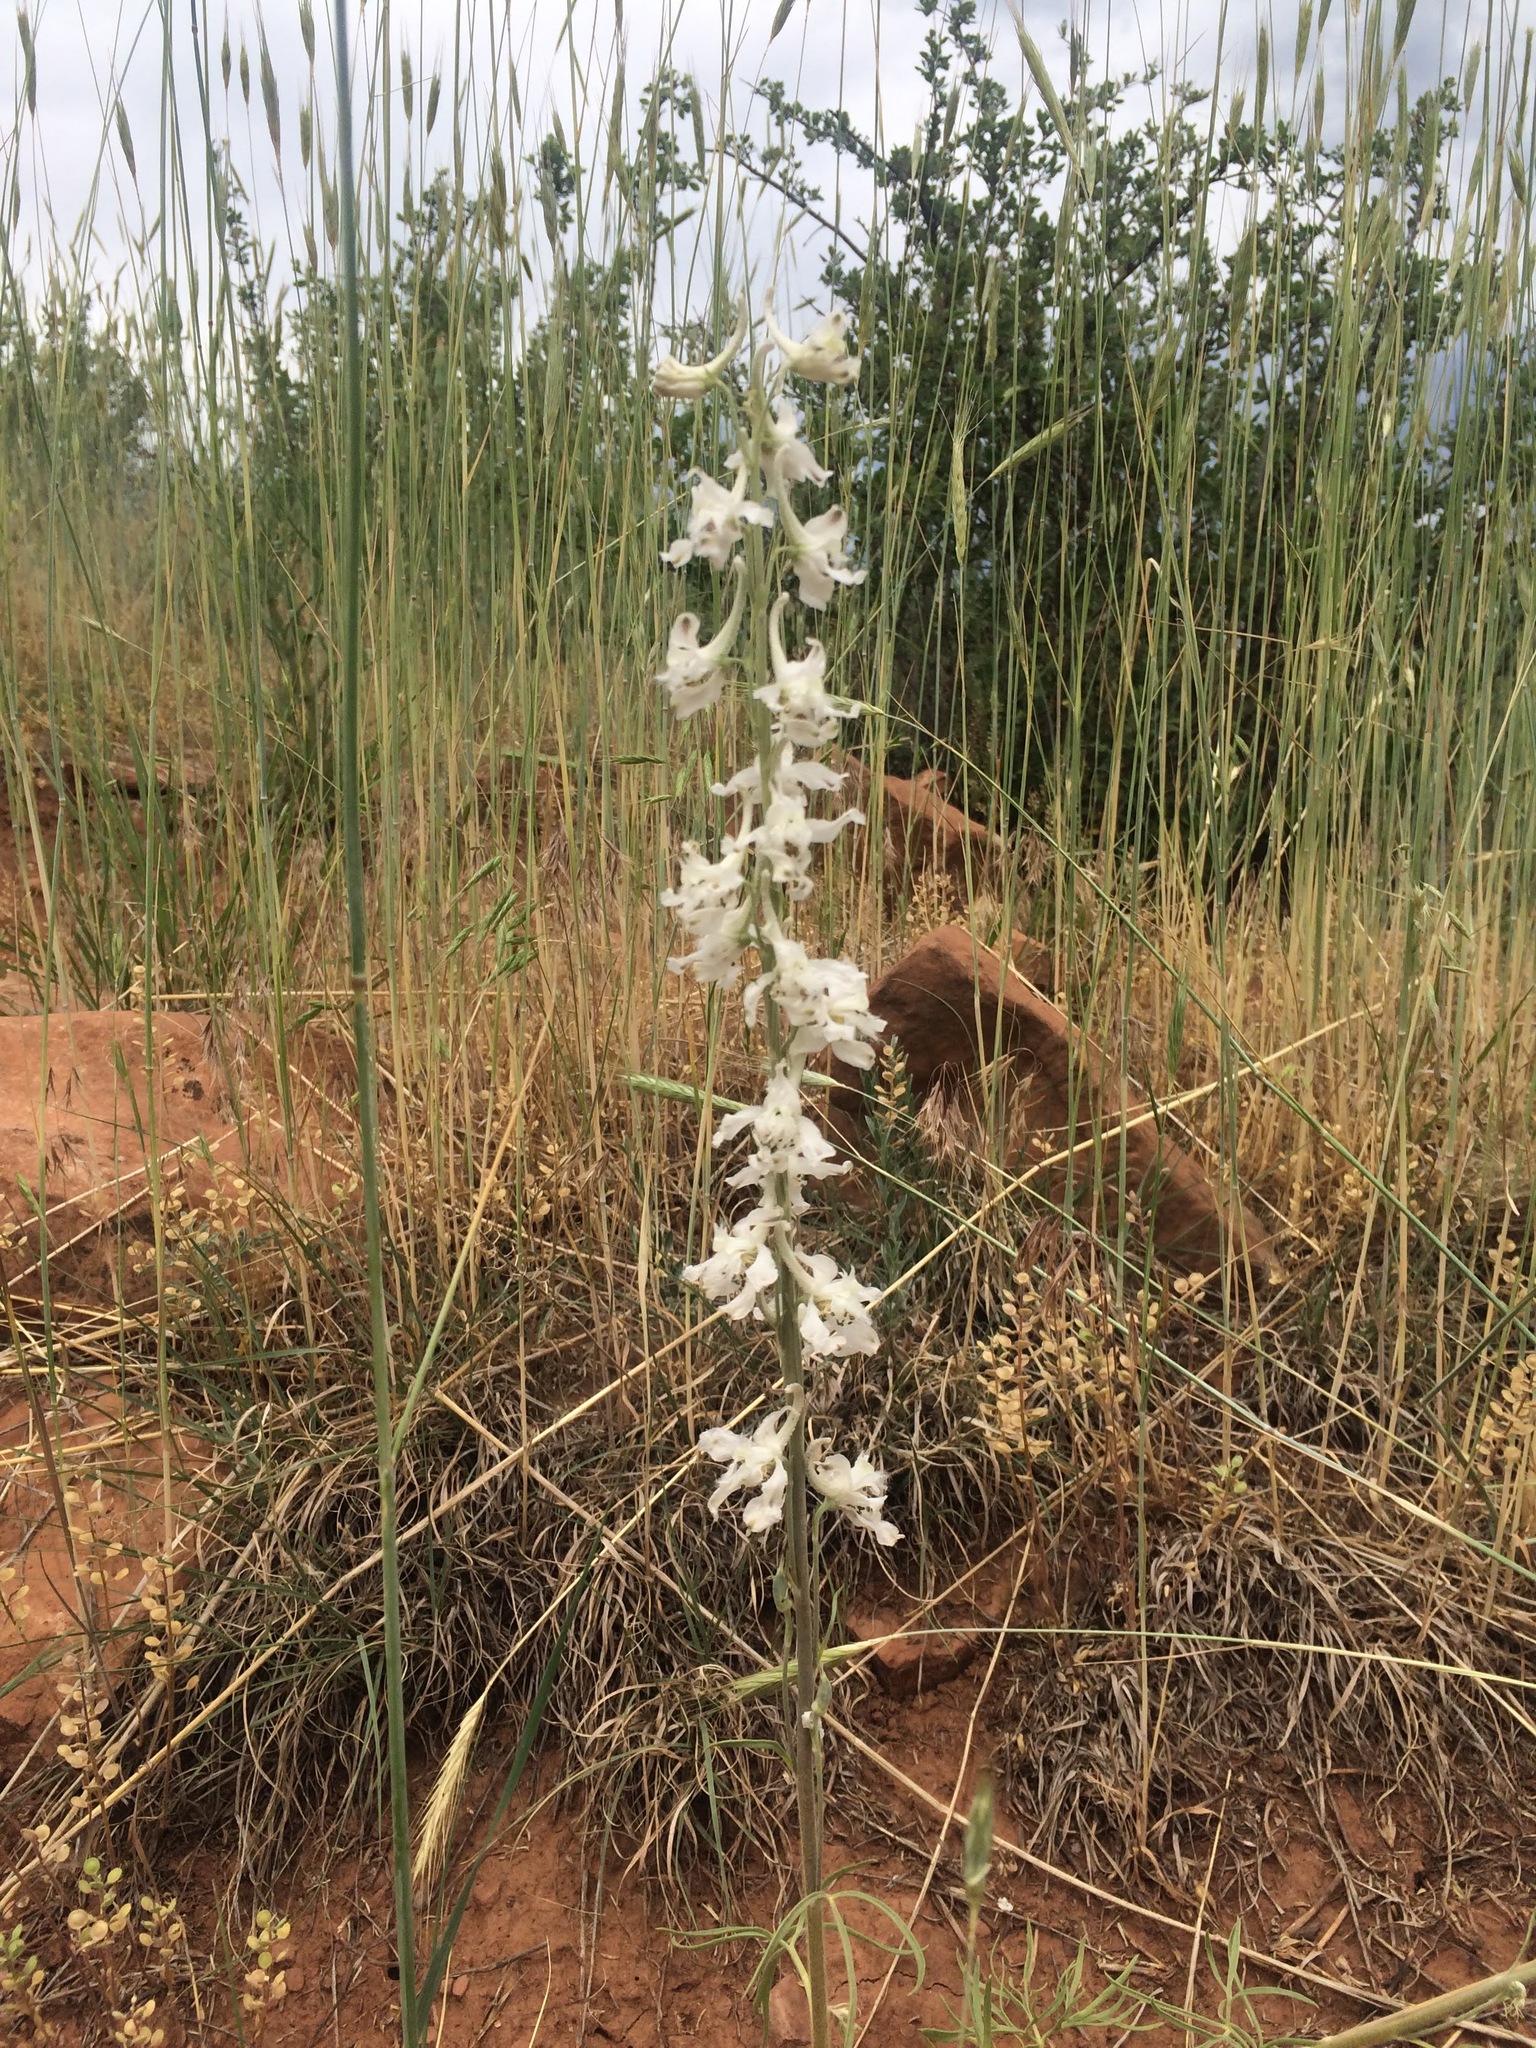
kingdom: Plantae
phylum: Tracheophyta
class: Magnoliopsida
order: Ranunculales
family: Ranunculaceae
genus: Delphinium
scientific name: Delphinium carolinianum
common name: Carolina larkspur
